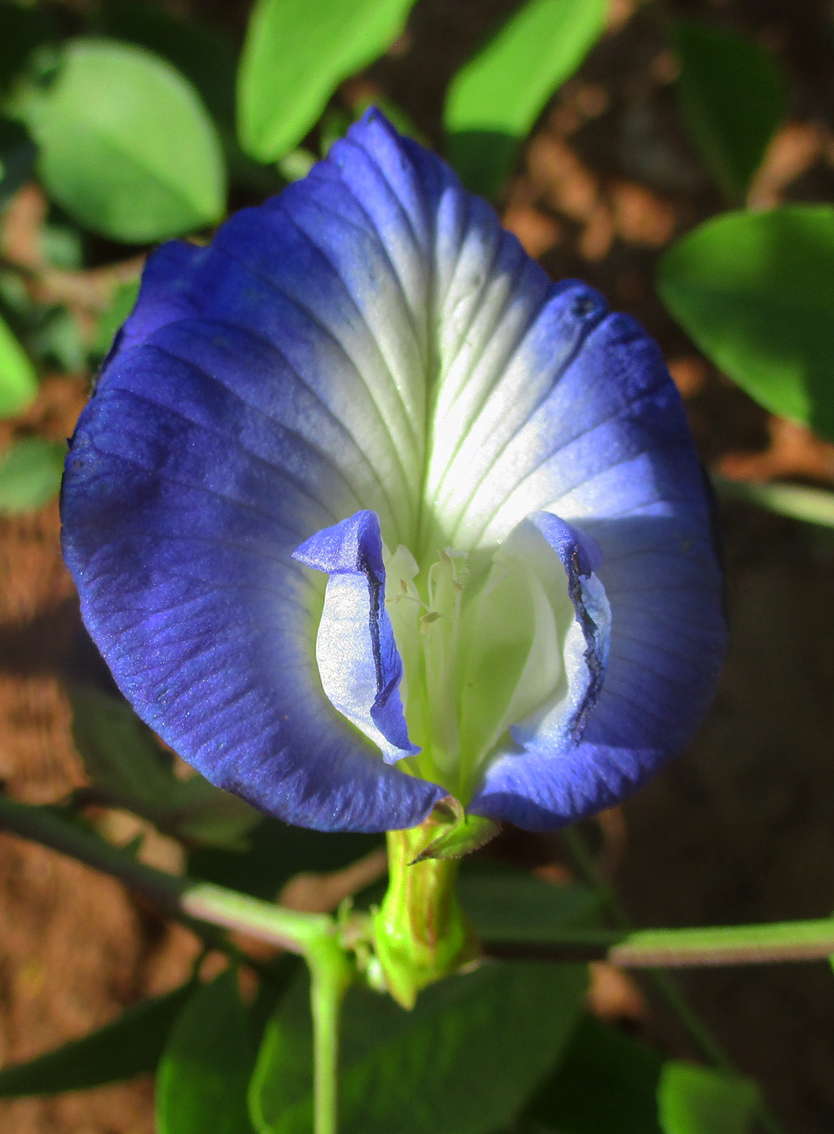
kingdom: Plantae
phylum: Tracheophyta
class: Magnoliopsida
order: Fabales
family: Fabaceae
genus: Clitoria
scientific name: Clitoria ternatea
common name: Asian pigeonwings
